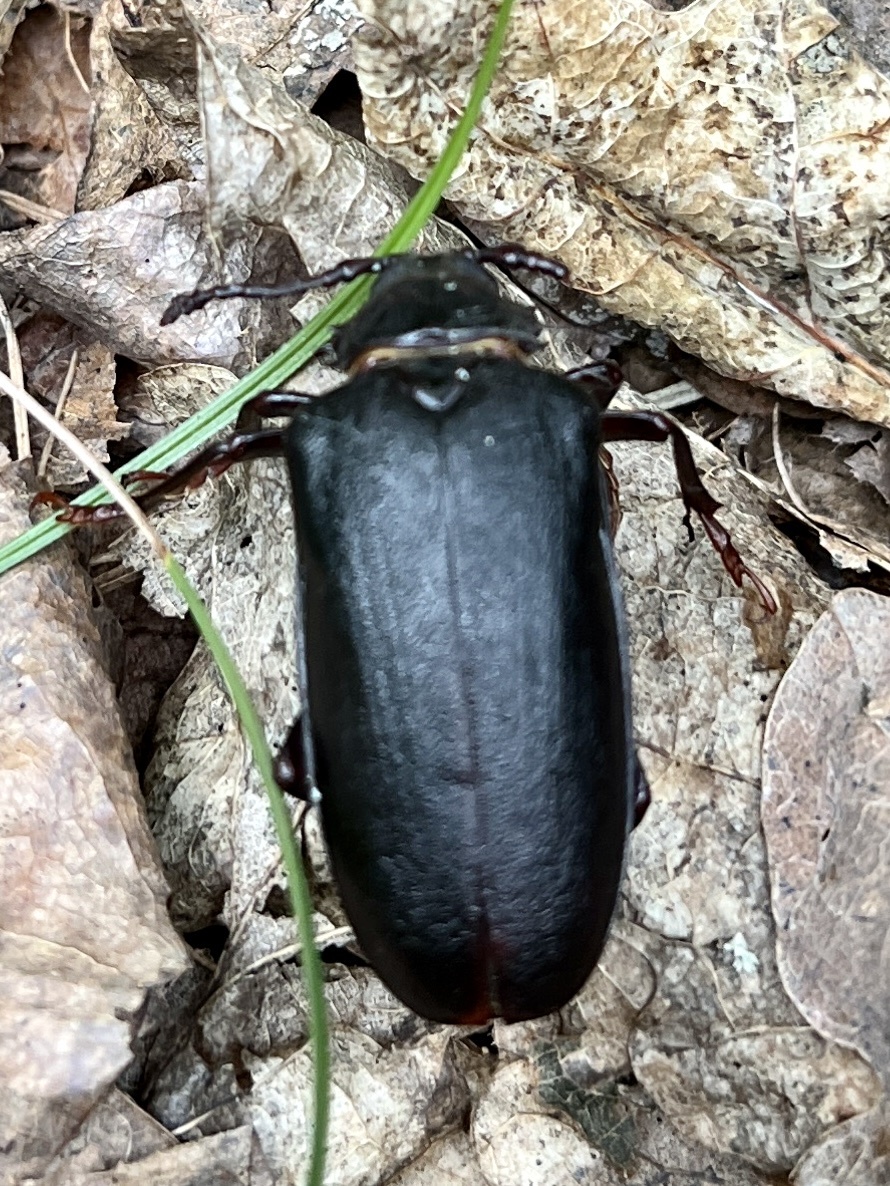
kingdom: Animalia
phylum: Arthropoda
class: Insecta
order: Coleoptera
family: Cerambycidae
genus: Prionus
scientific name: Prionus coriarius
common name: Tanner beetle
